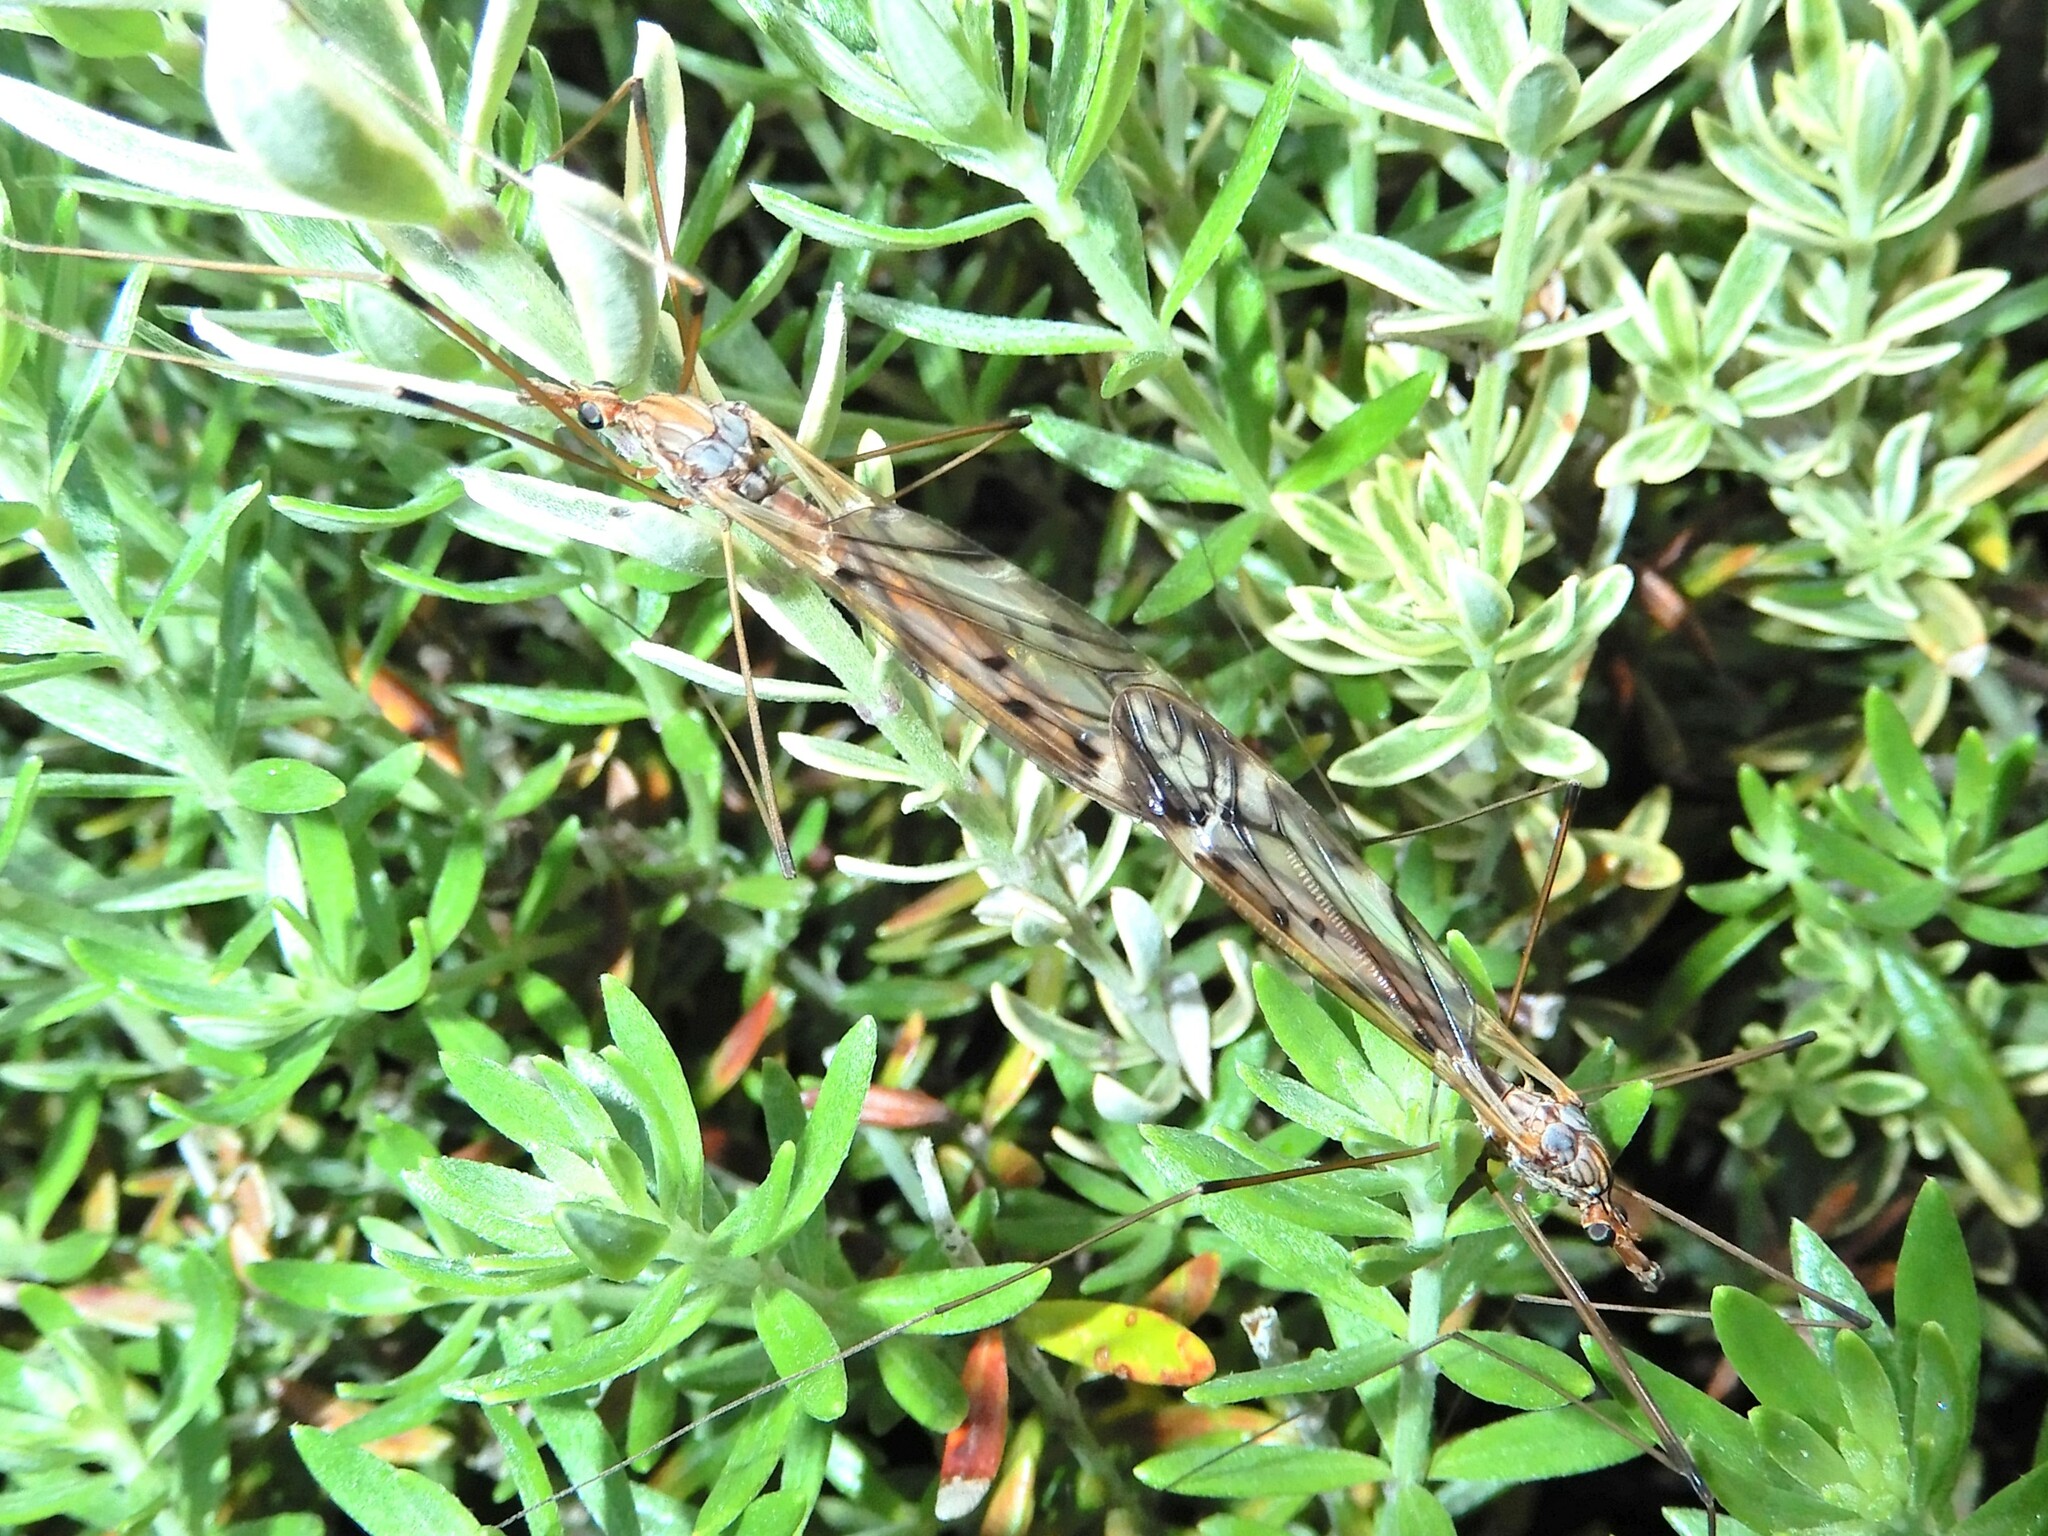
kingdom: Animalia
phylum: Arthropoda
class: Insecta
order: Diptera
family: Tipulidae
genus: Zelandotipula
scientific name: Zelandotipula novarae
